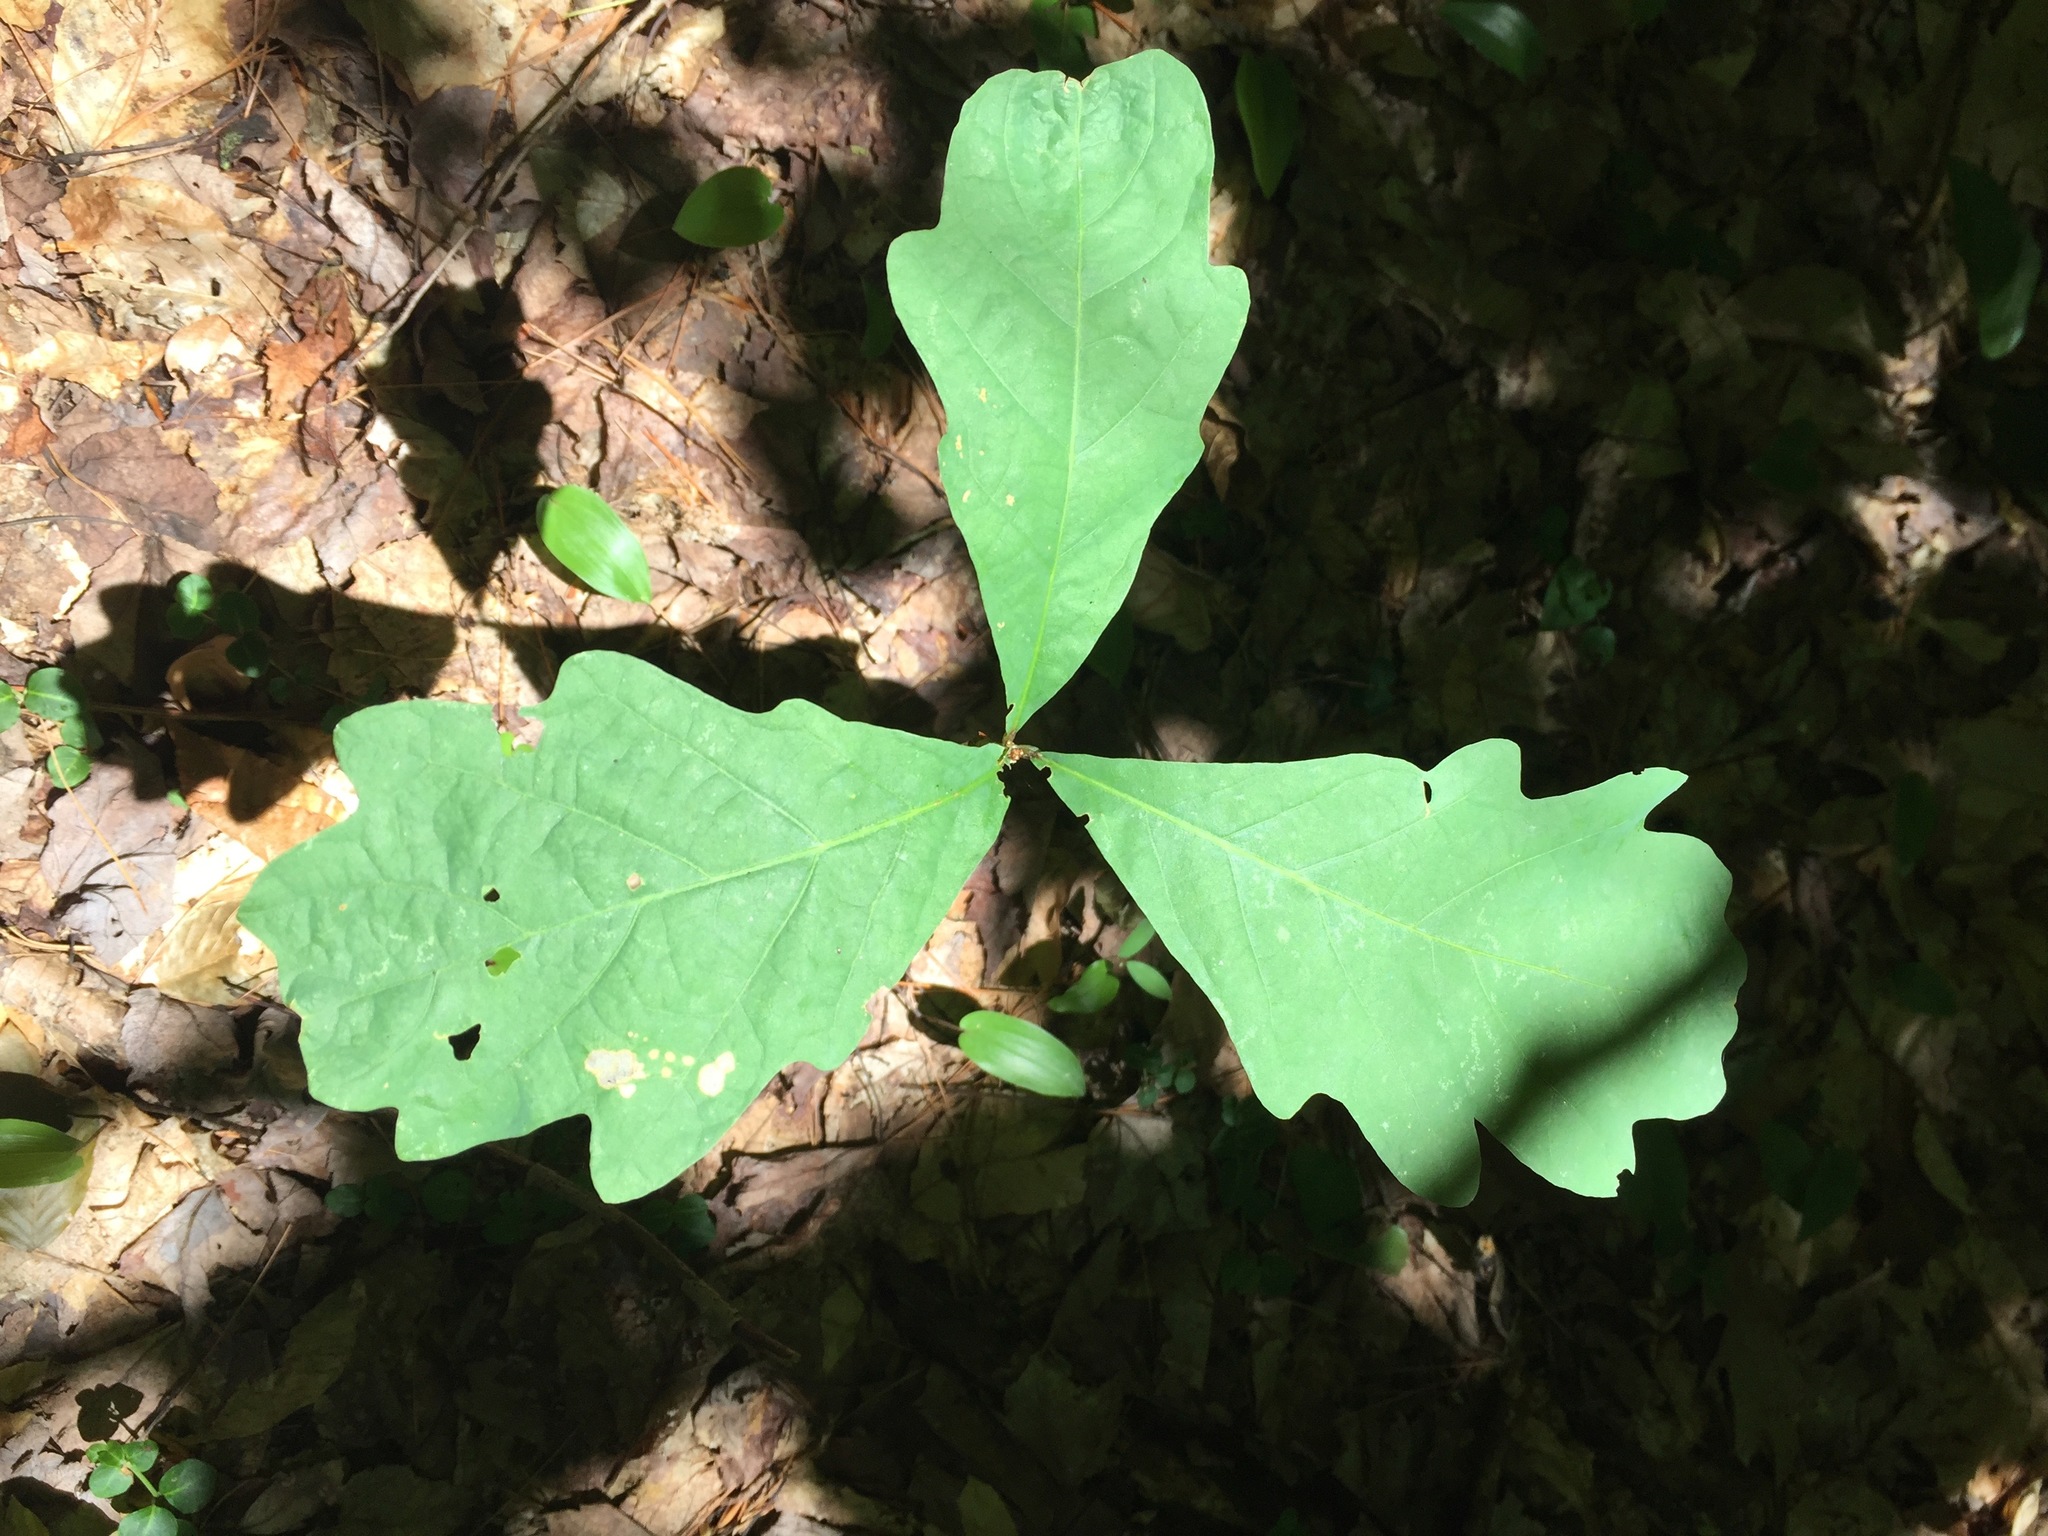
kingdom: Plantae
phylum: Tracheophyta
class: Magnoliopsida
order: Fagales
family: Fagaceae
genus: Quercus
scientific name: Quercus alba
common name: White oak
